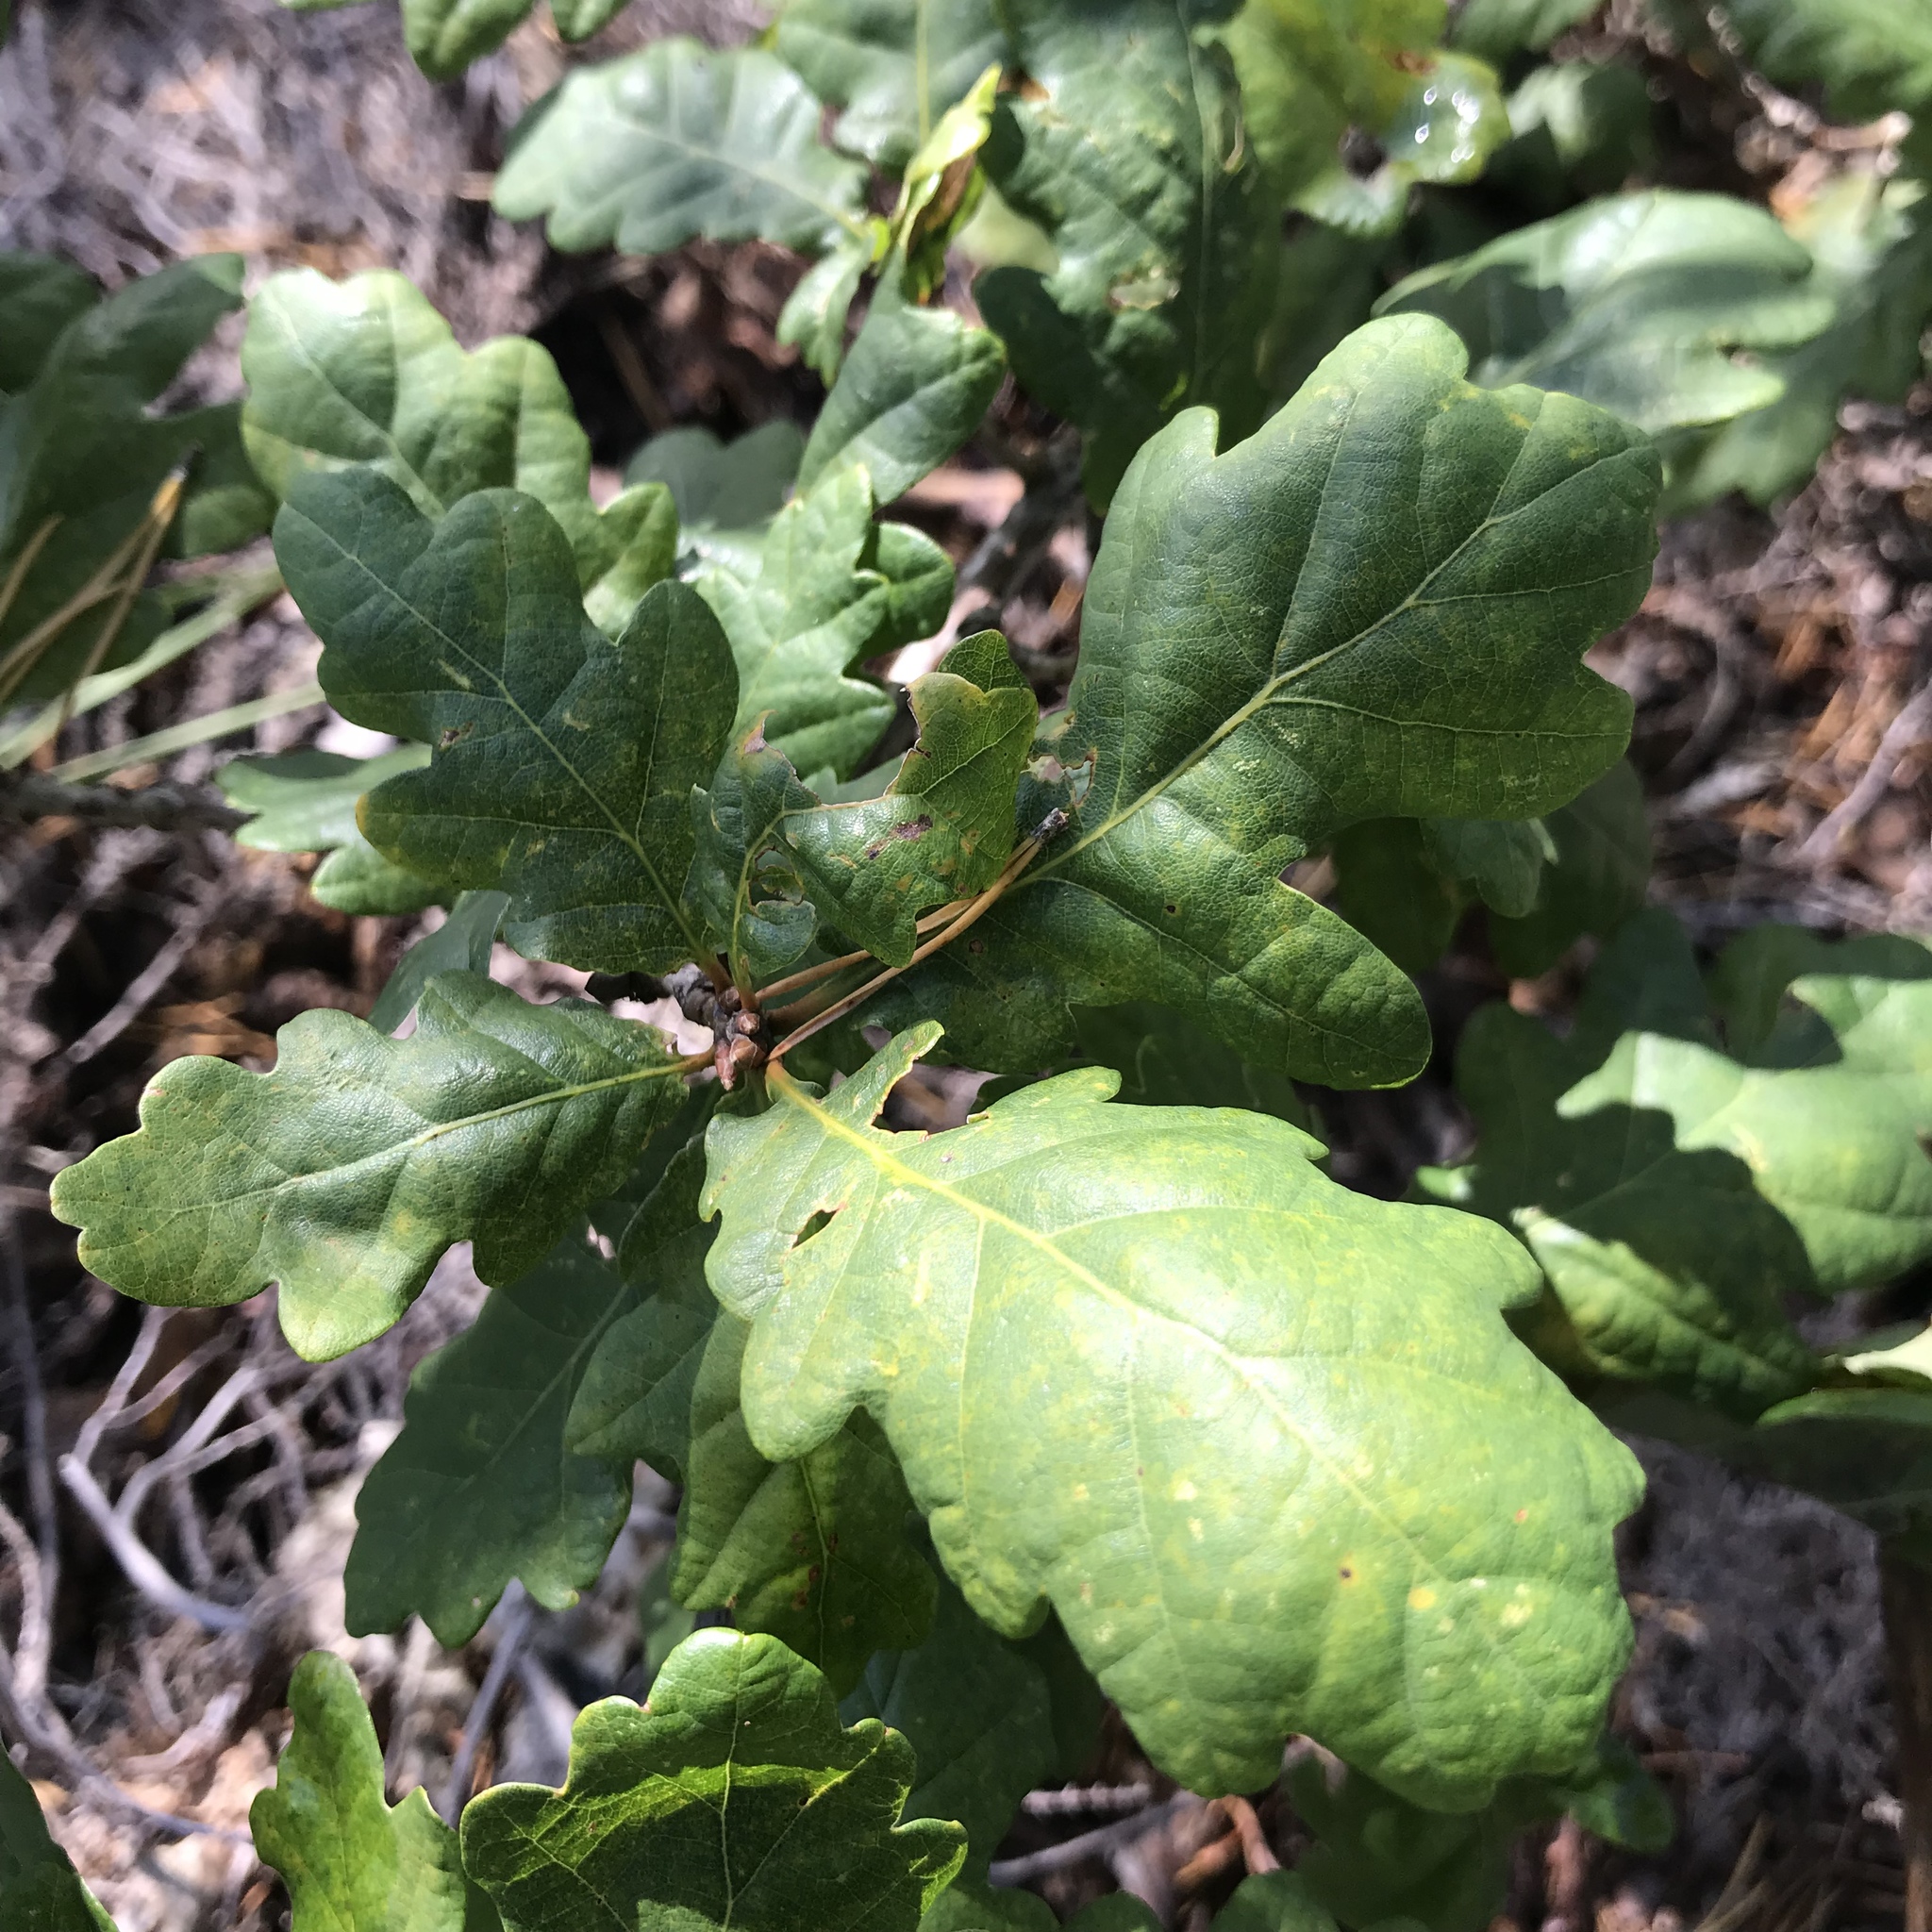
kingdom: Plantae
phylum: Tracheophyta
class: Magnoliopsida
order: Fagales
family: Fagaceae
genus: Quercus
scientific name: Quercus robur
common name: Pedunculate oak
